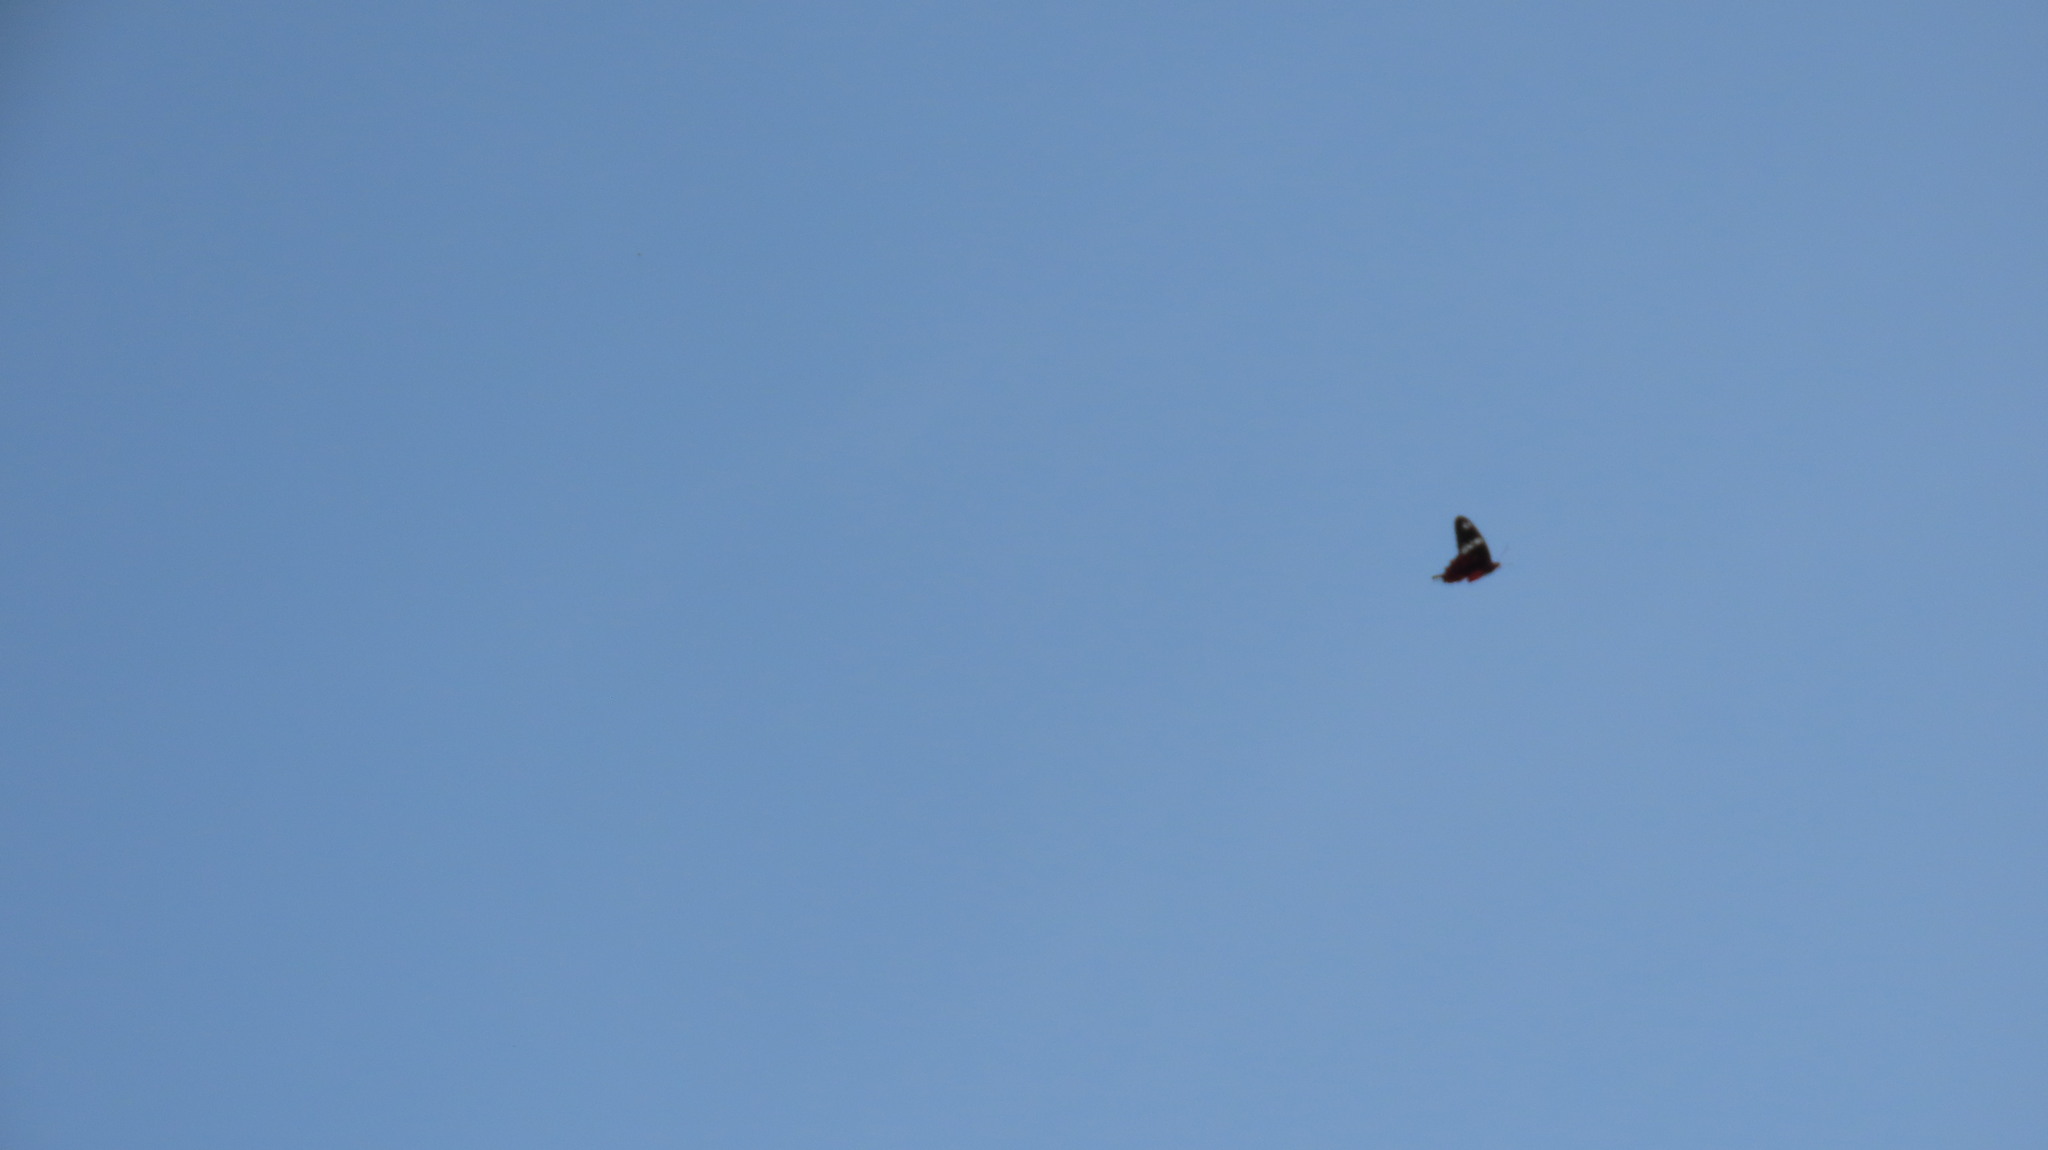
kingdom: Animalia
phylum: Arthropoda
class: Insecta
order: Lepidoptera
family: Papilionidae
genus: Pachliopta
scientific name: Pachliopta hector
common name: Crimson rose
